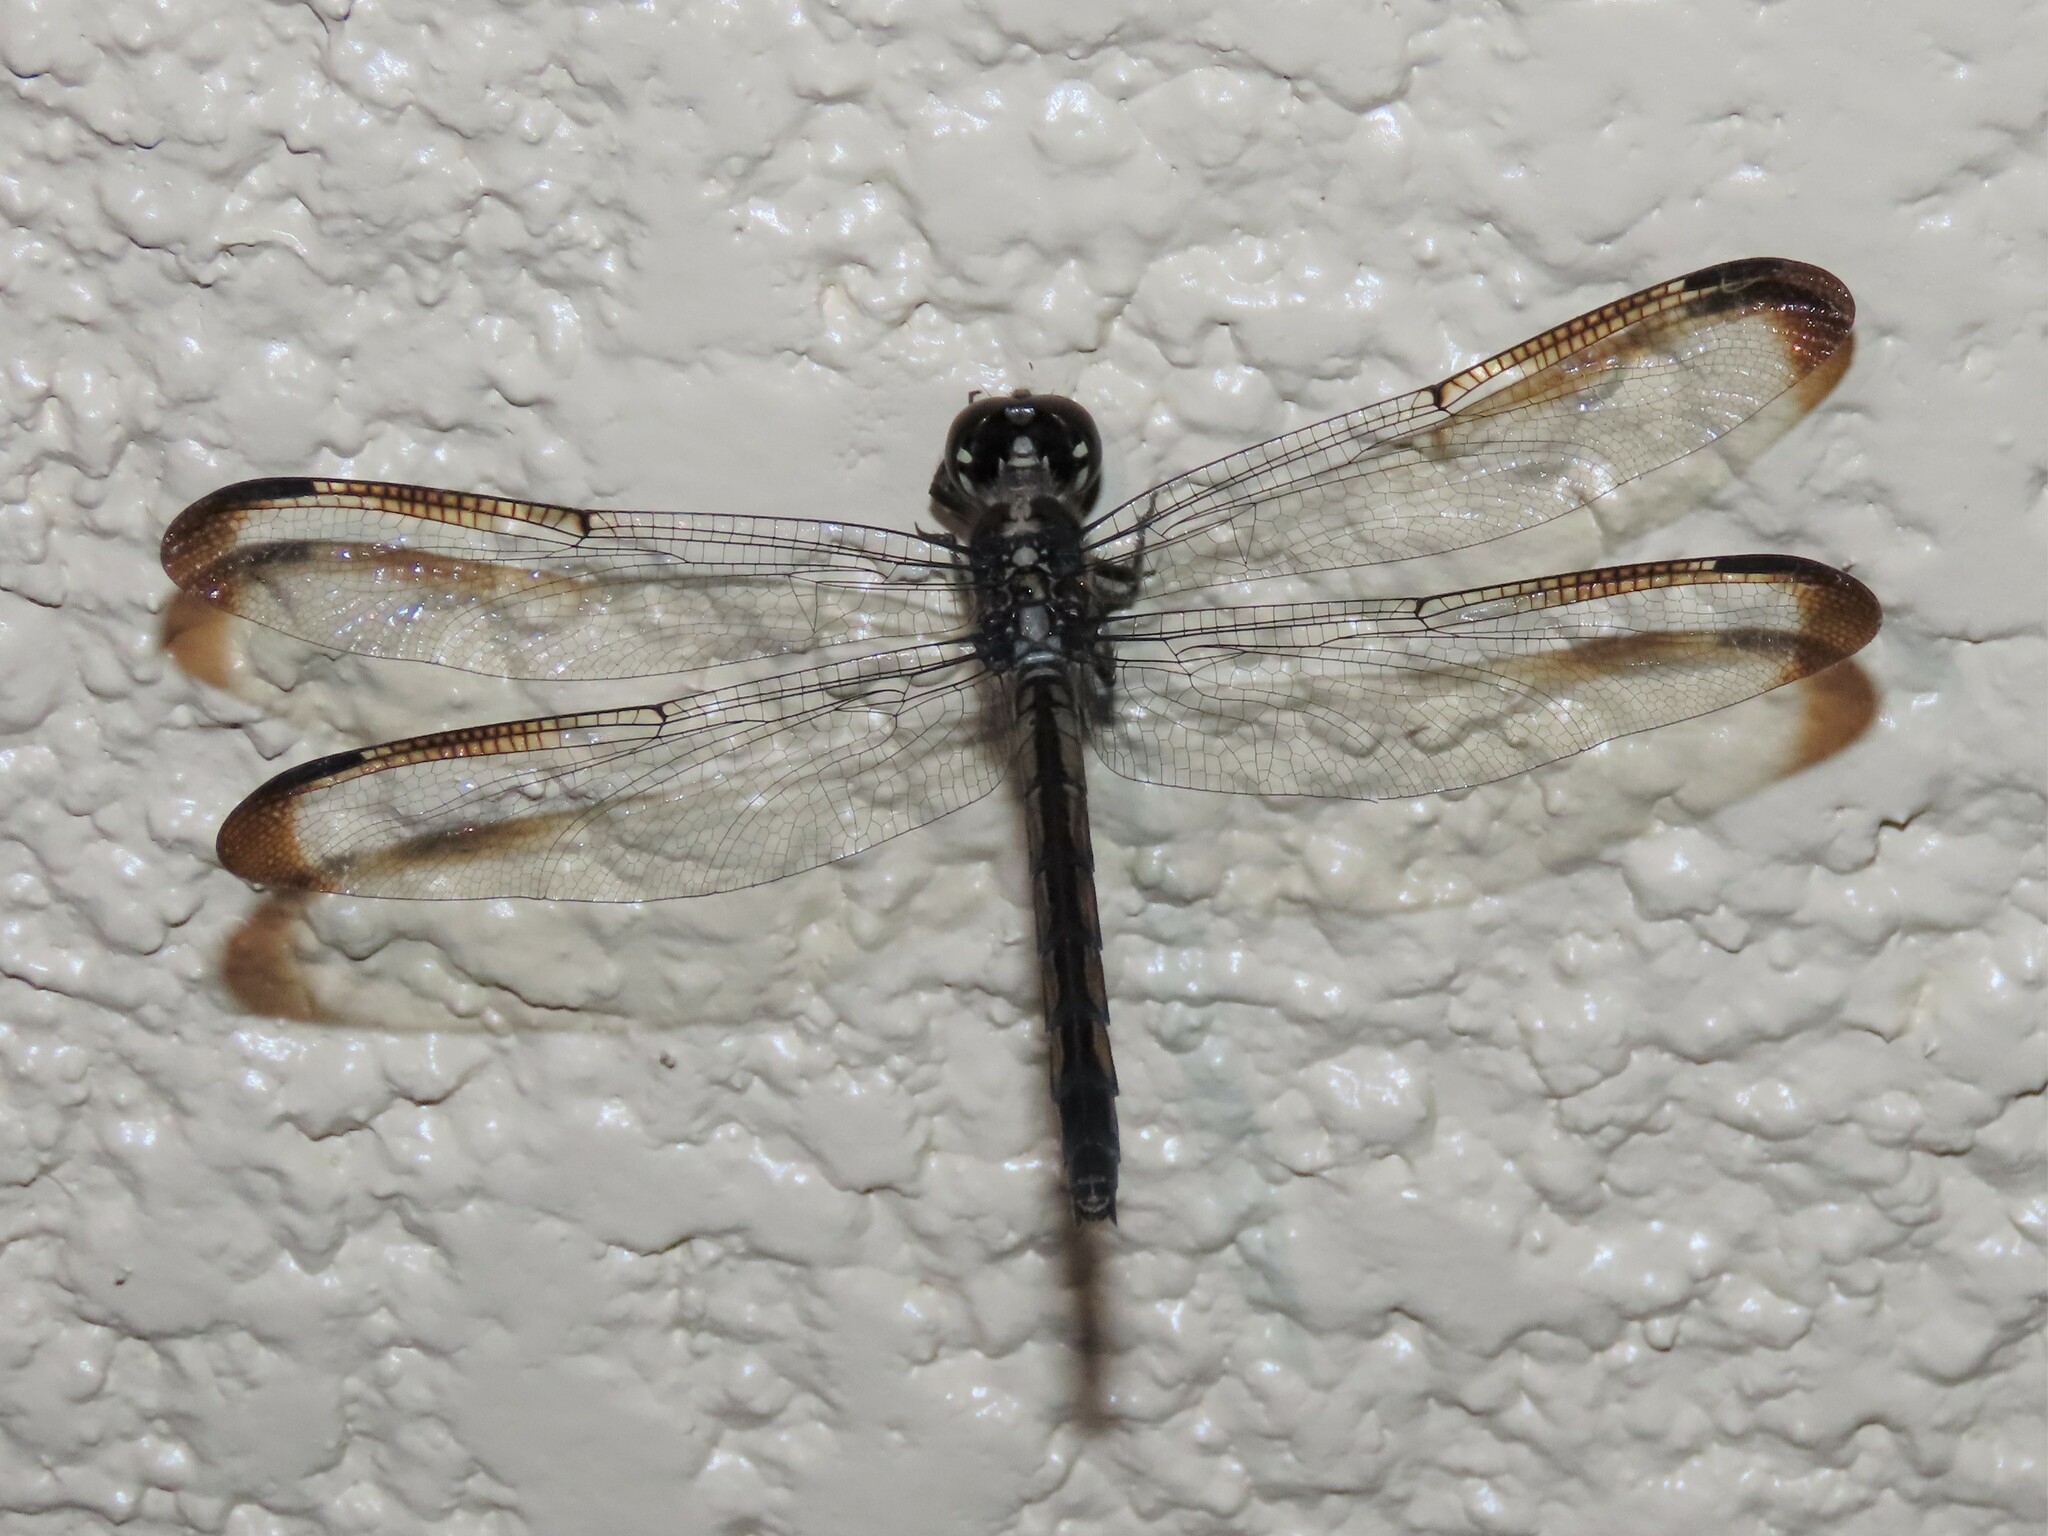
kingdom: Animalia
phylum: Arthropoda
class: Insecta
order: Odonata
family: Libellulidae
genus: Libellula
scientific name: Libellula incesta
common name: Slaty skimmer
